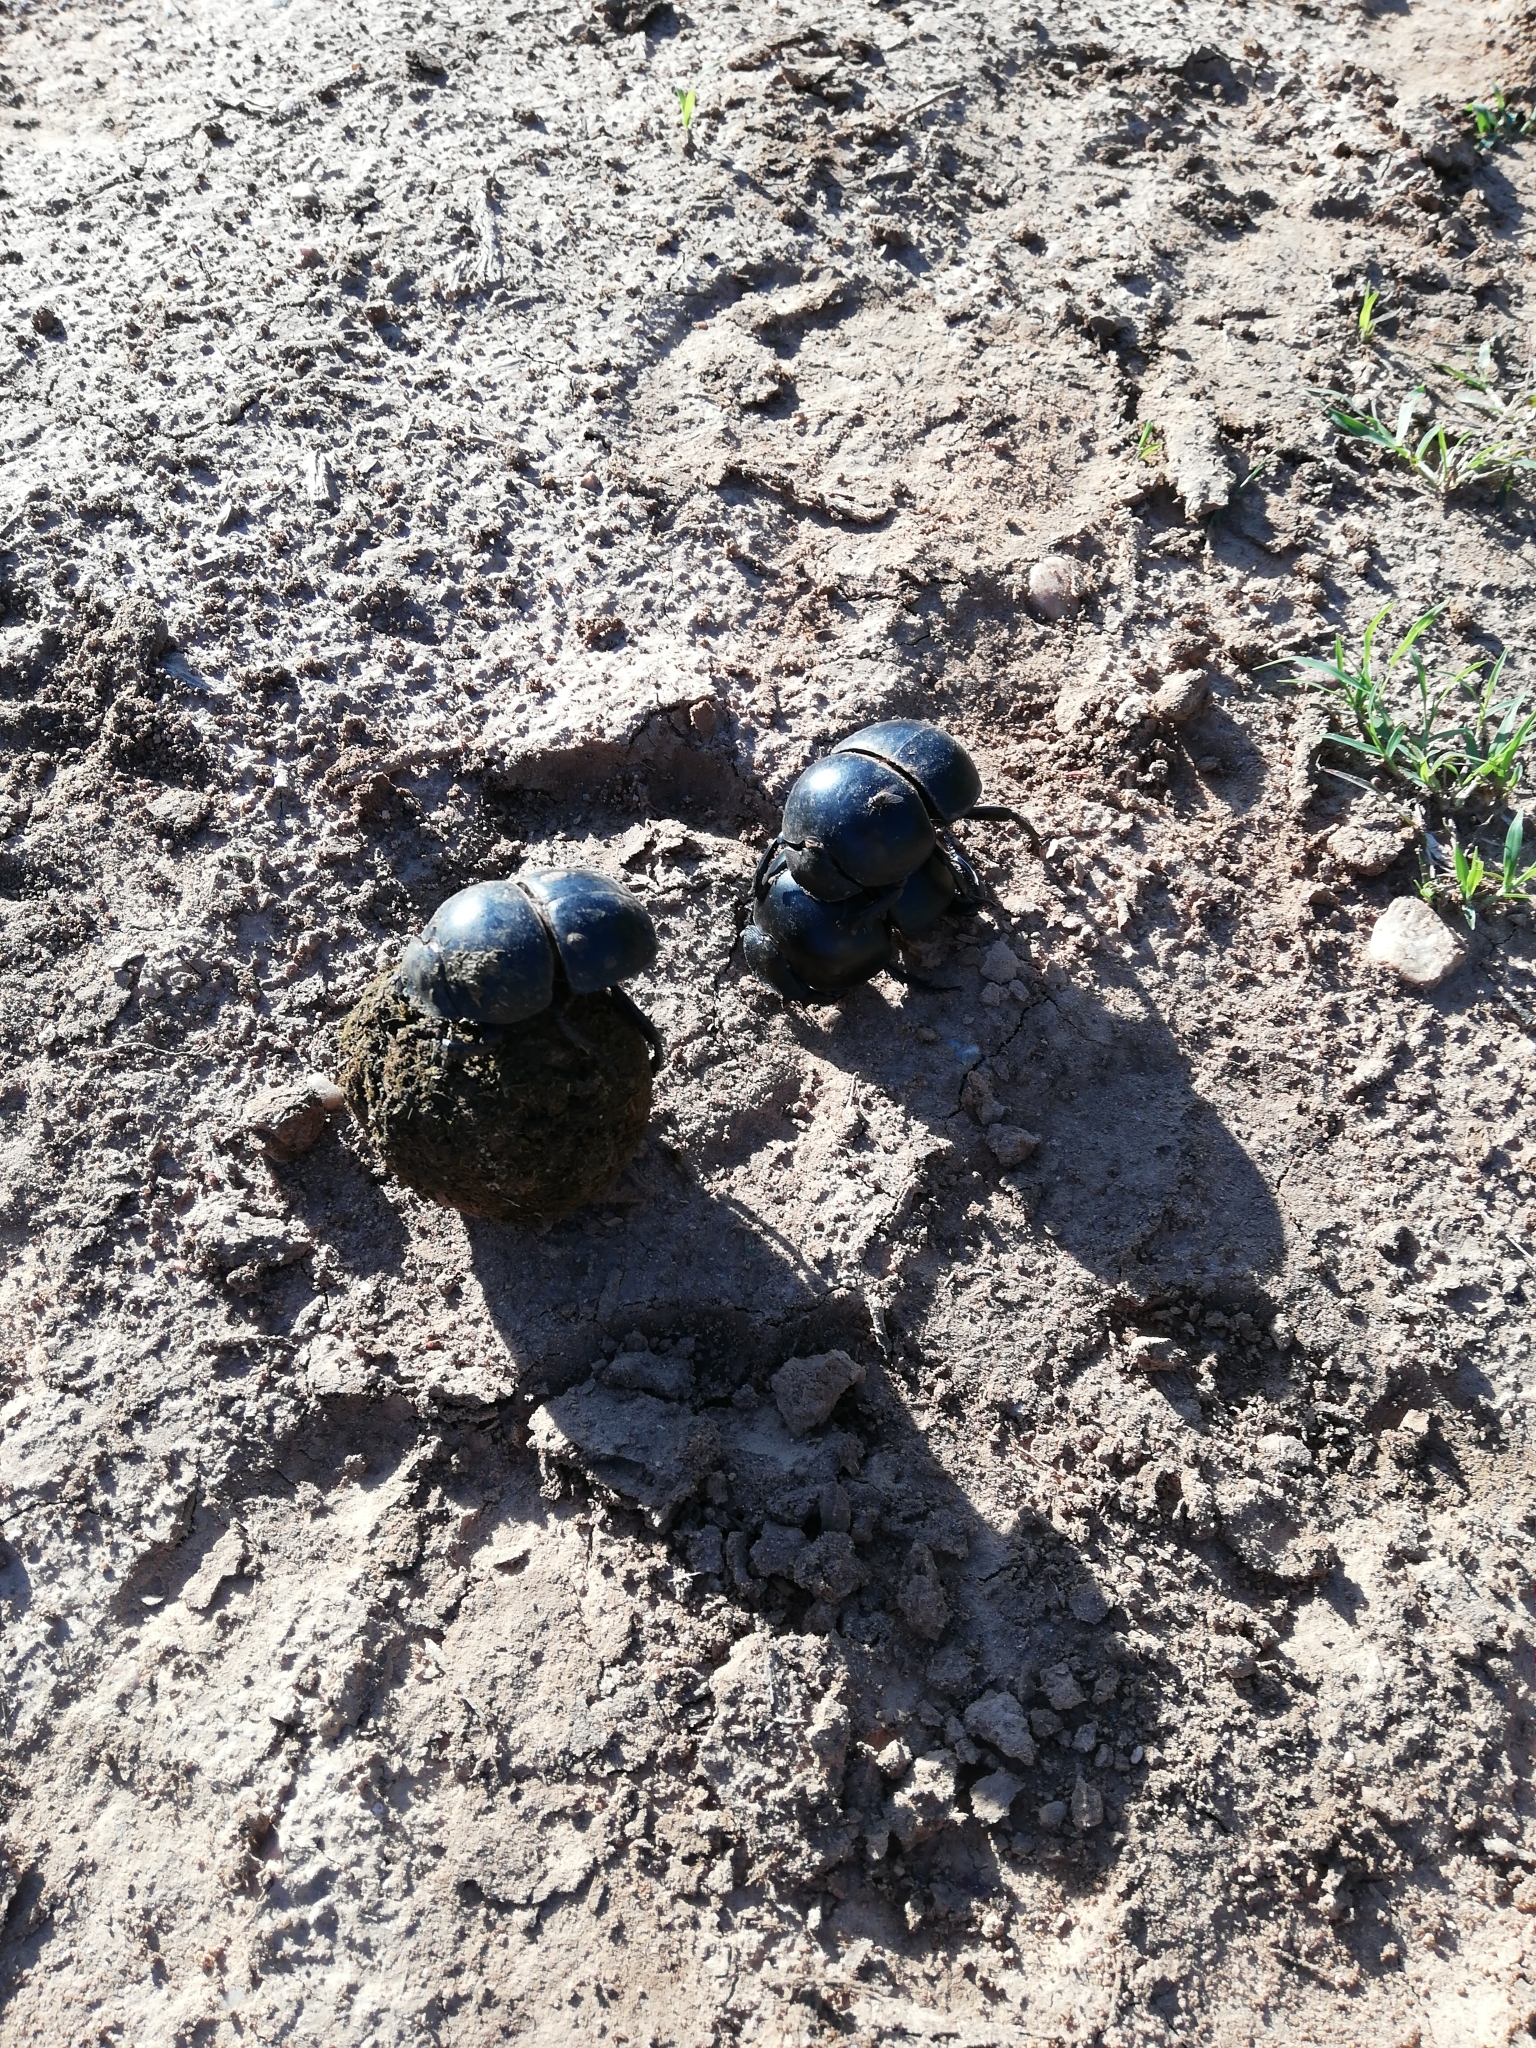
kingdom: Animalia
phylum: Arthropoda
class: Insecta
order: Coleoptera
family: Scarabaeidae
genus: Circellium
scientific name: Circellium bacchus
